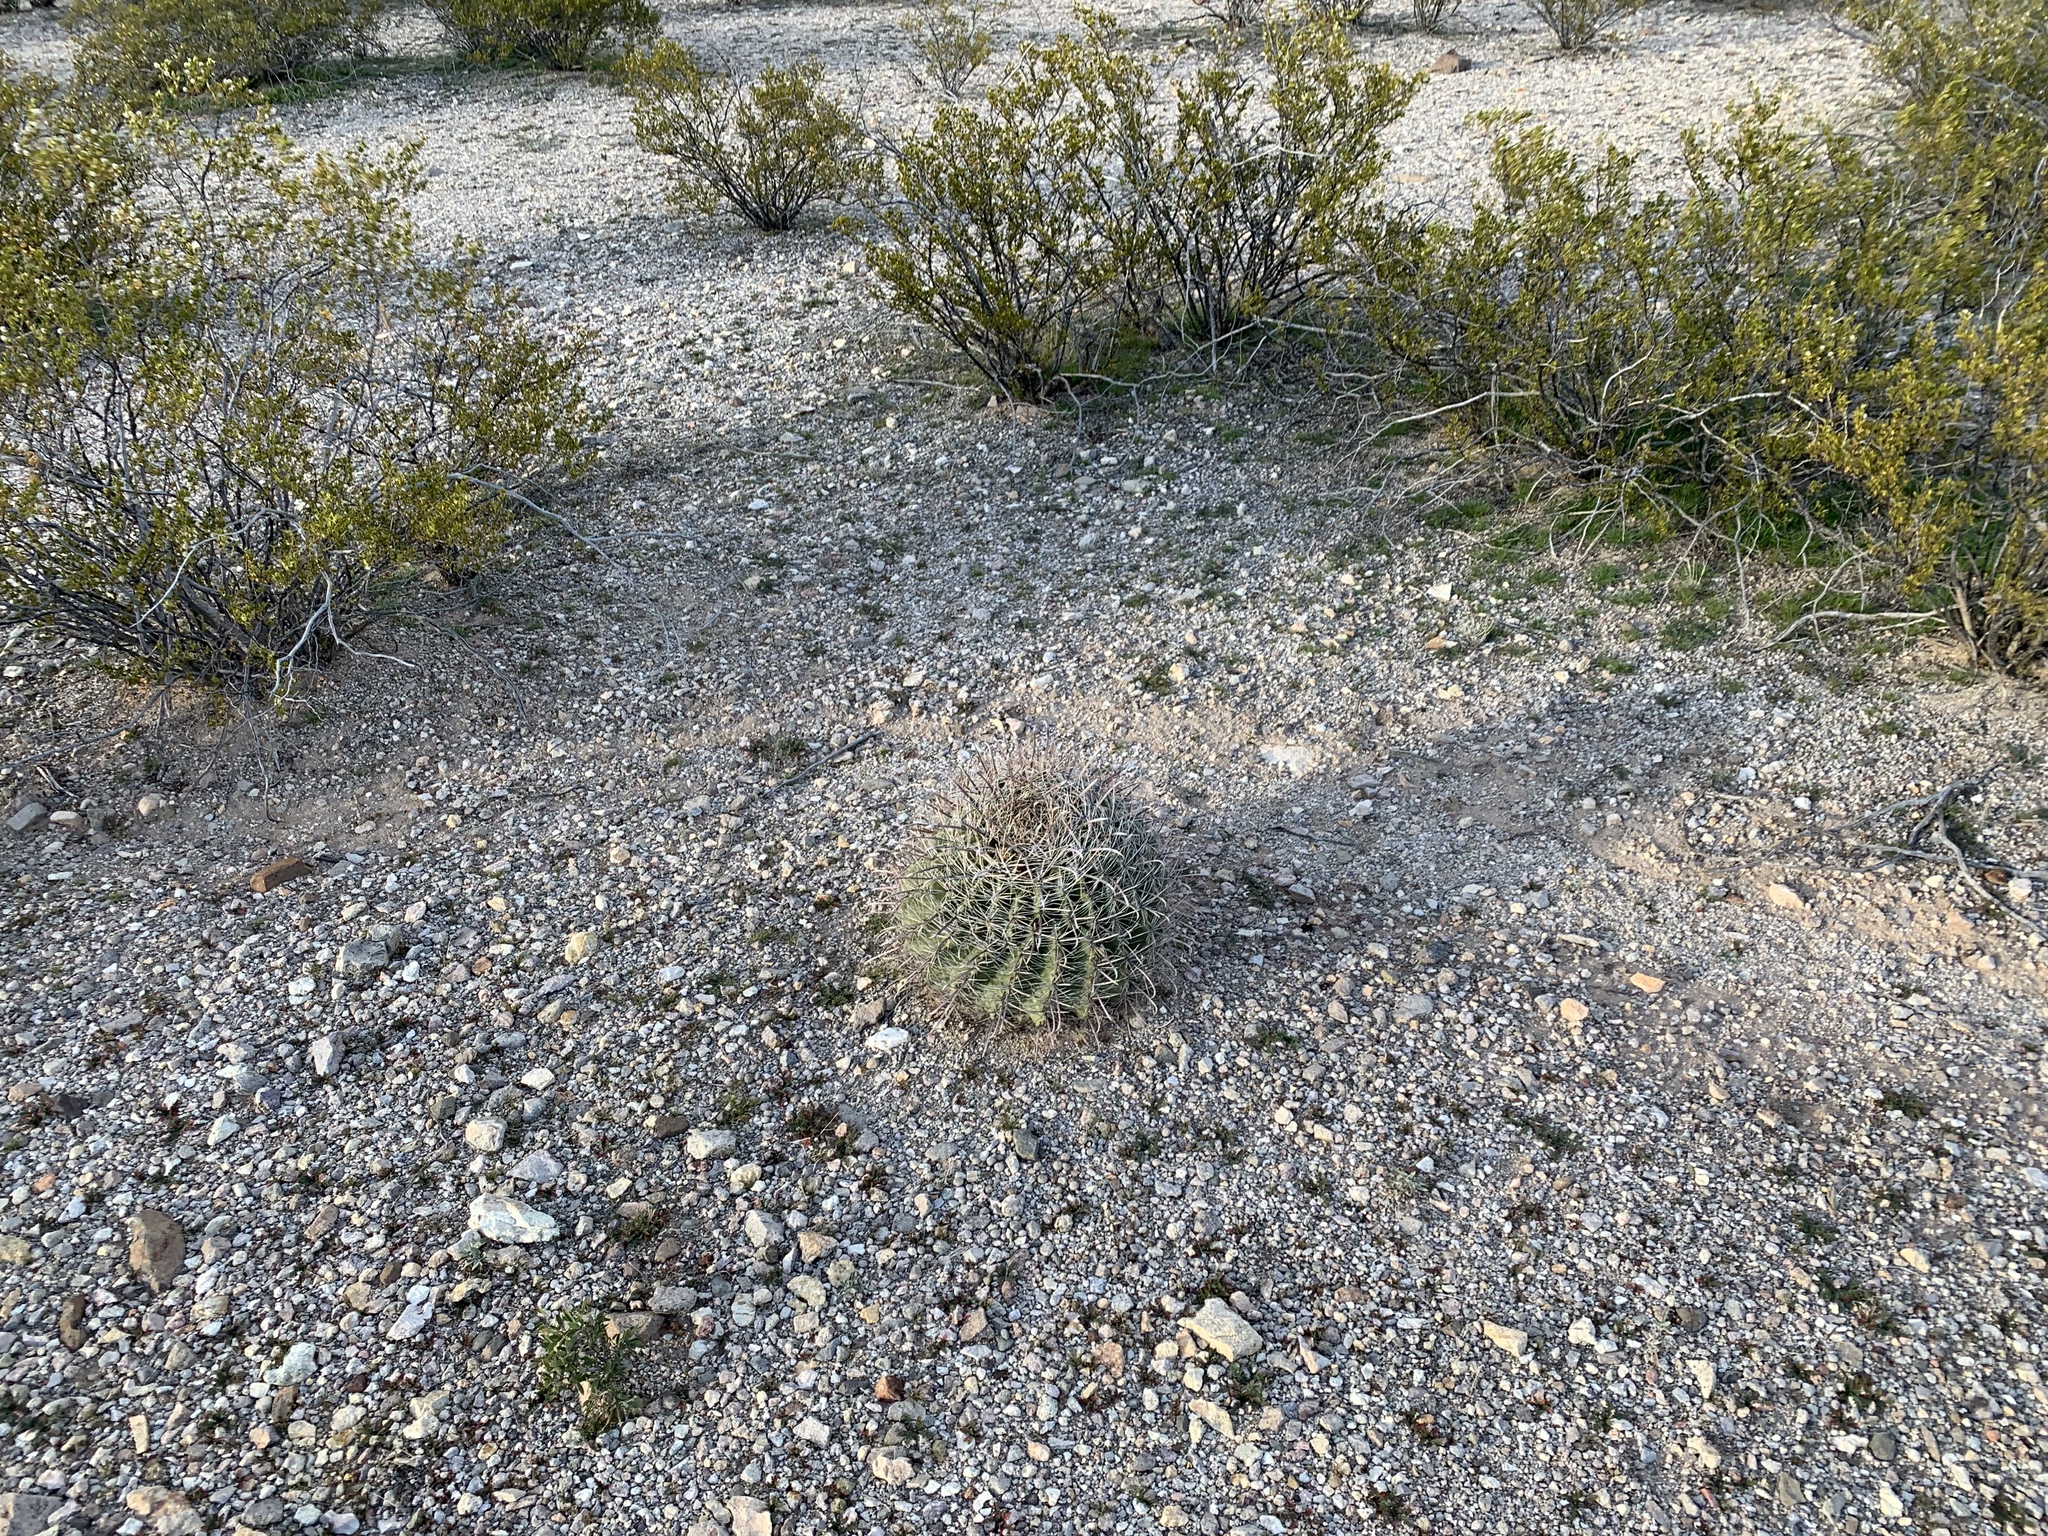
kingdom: Plantae
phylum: Tracheophyta
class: Magnoliopsida
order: Caryophyllales
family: Cactaceae
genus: Ferocactus
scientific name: Ferocactus wislizeni
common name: Candy barrel cactus
